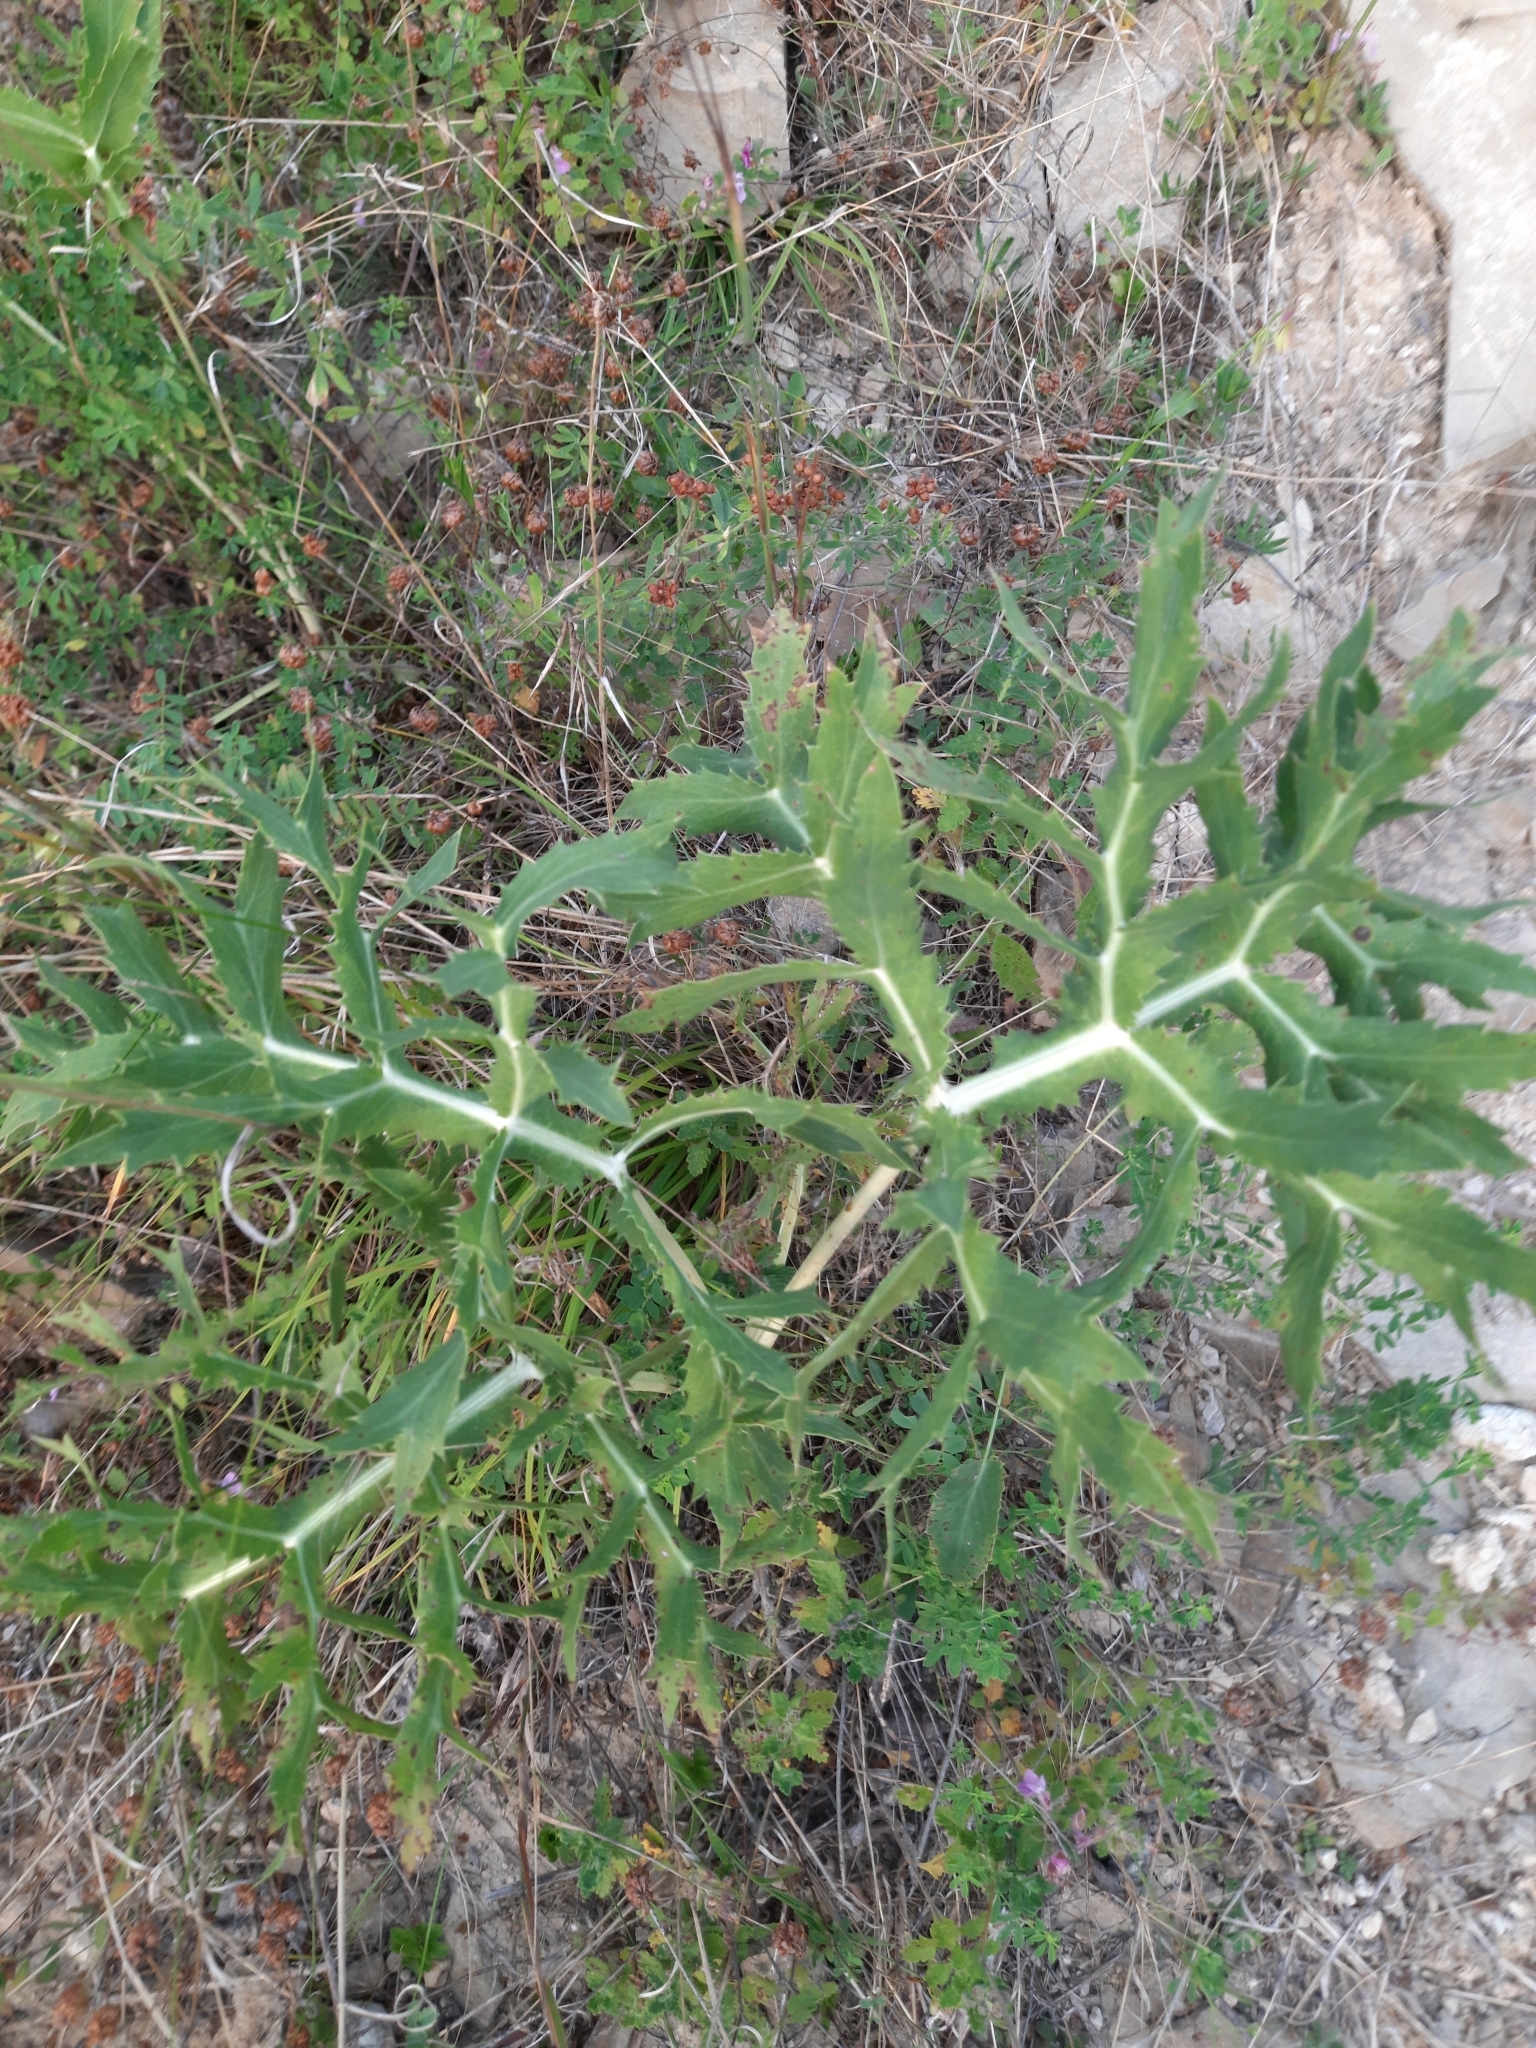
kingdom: Plantae
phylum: Tracheophyta
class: Magnoliopsida
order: Apiales
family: Apiaceae
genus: Eryngium
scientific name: Eryngium campestre
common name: Field eryngo
